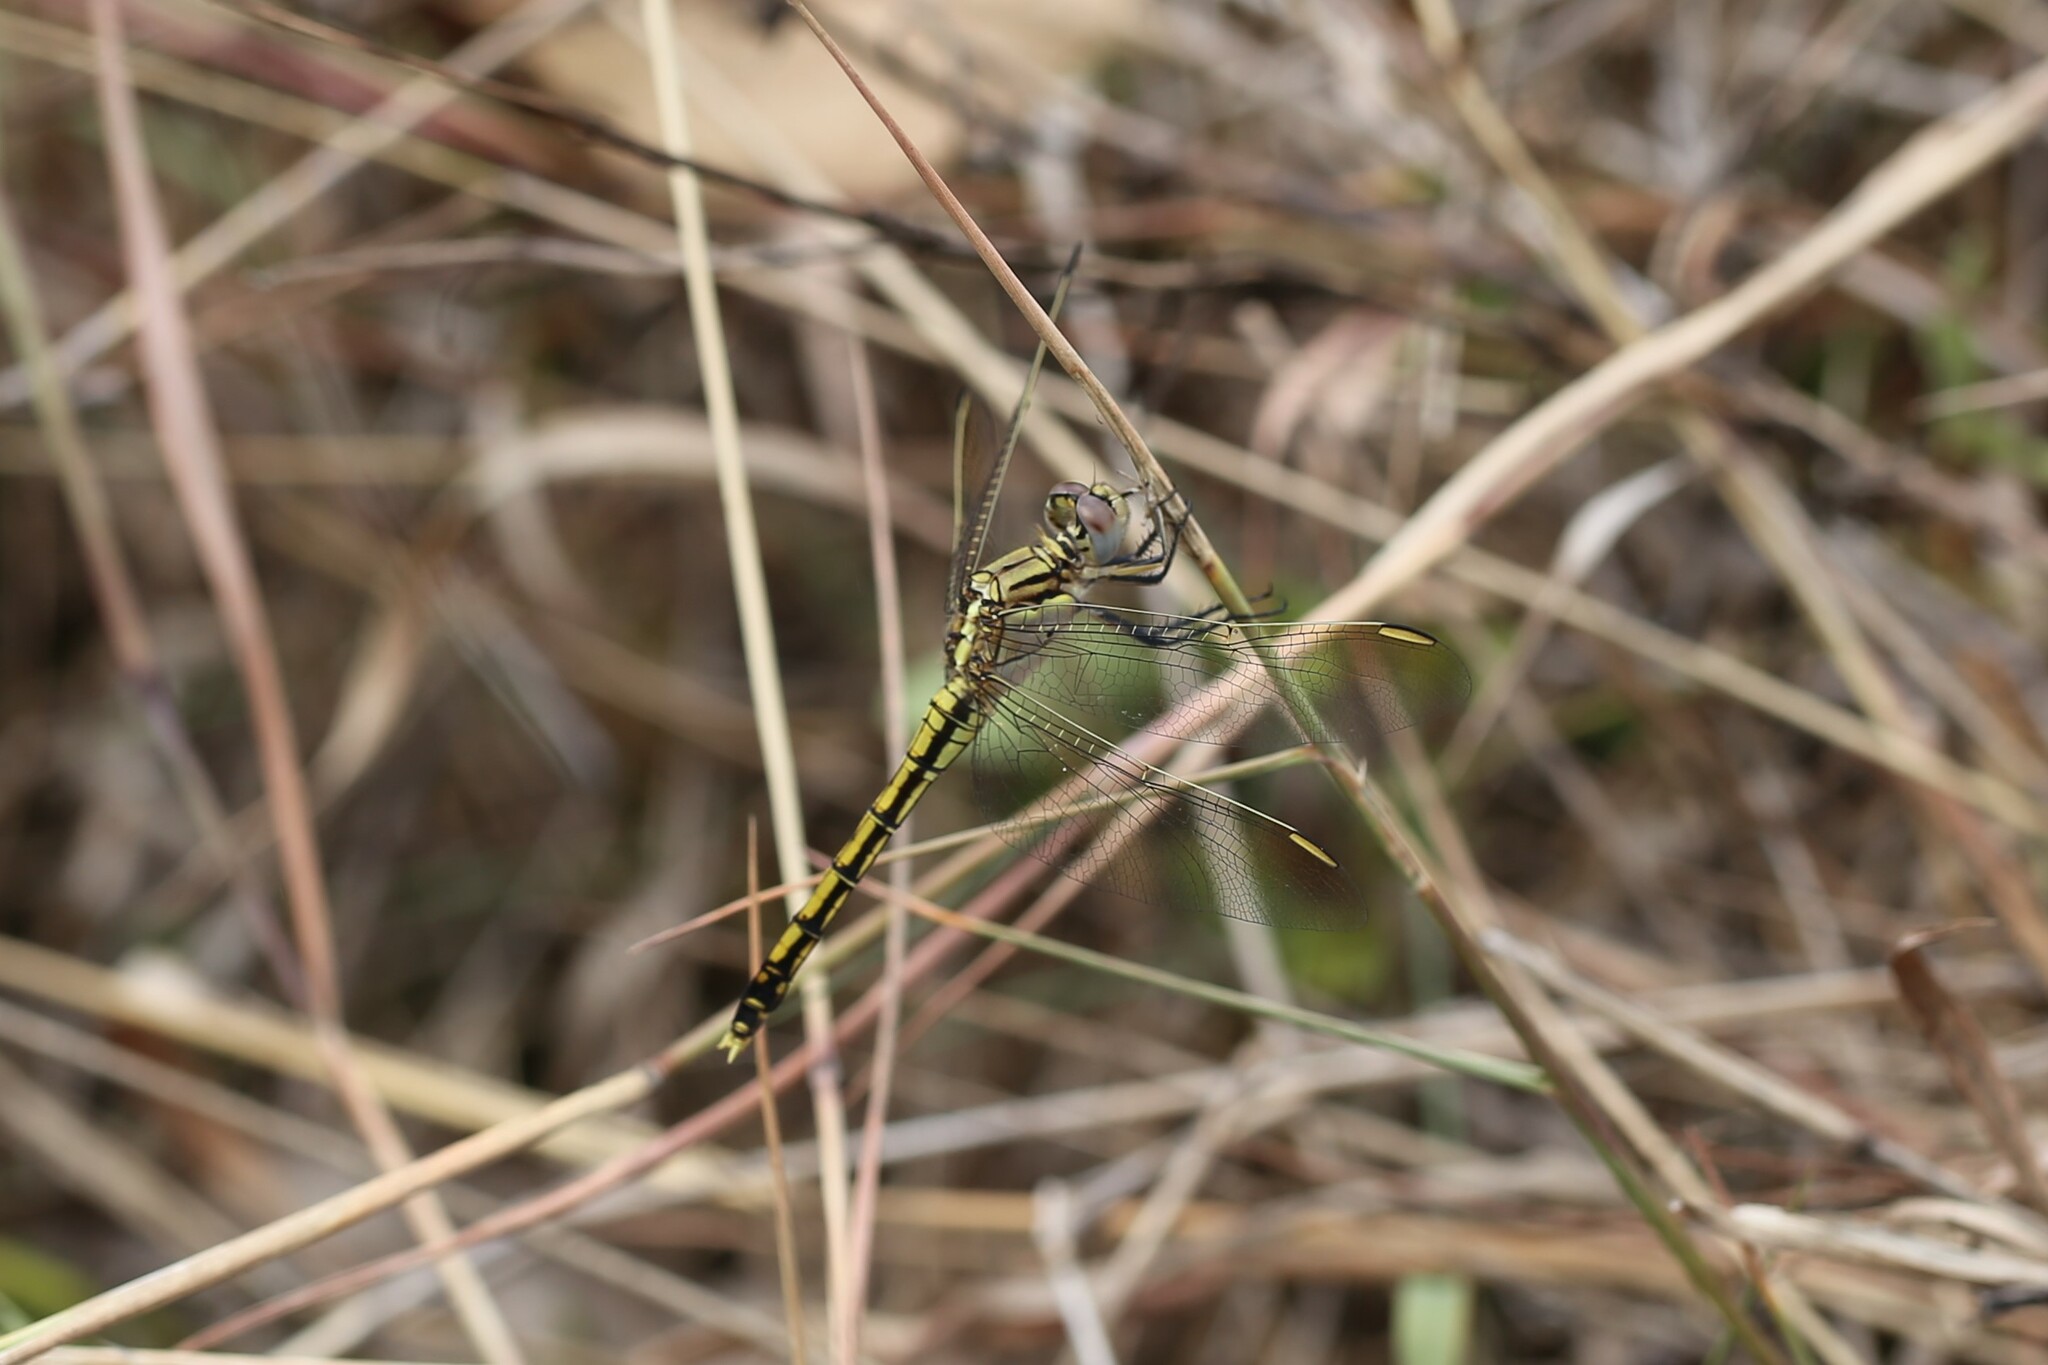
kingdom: Animalia
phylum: Arthropoda
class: Insecta
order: Odonata
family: Libellulidae
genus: Orthetrum
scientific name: Orthetrum caledonicum
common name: Blue skimmer
